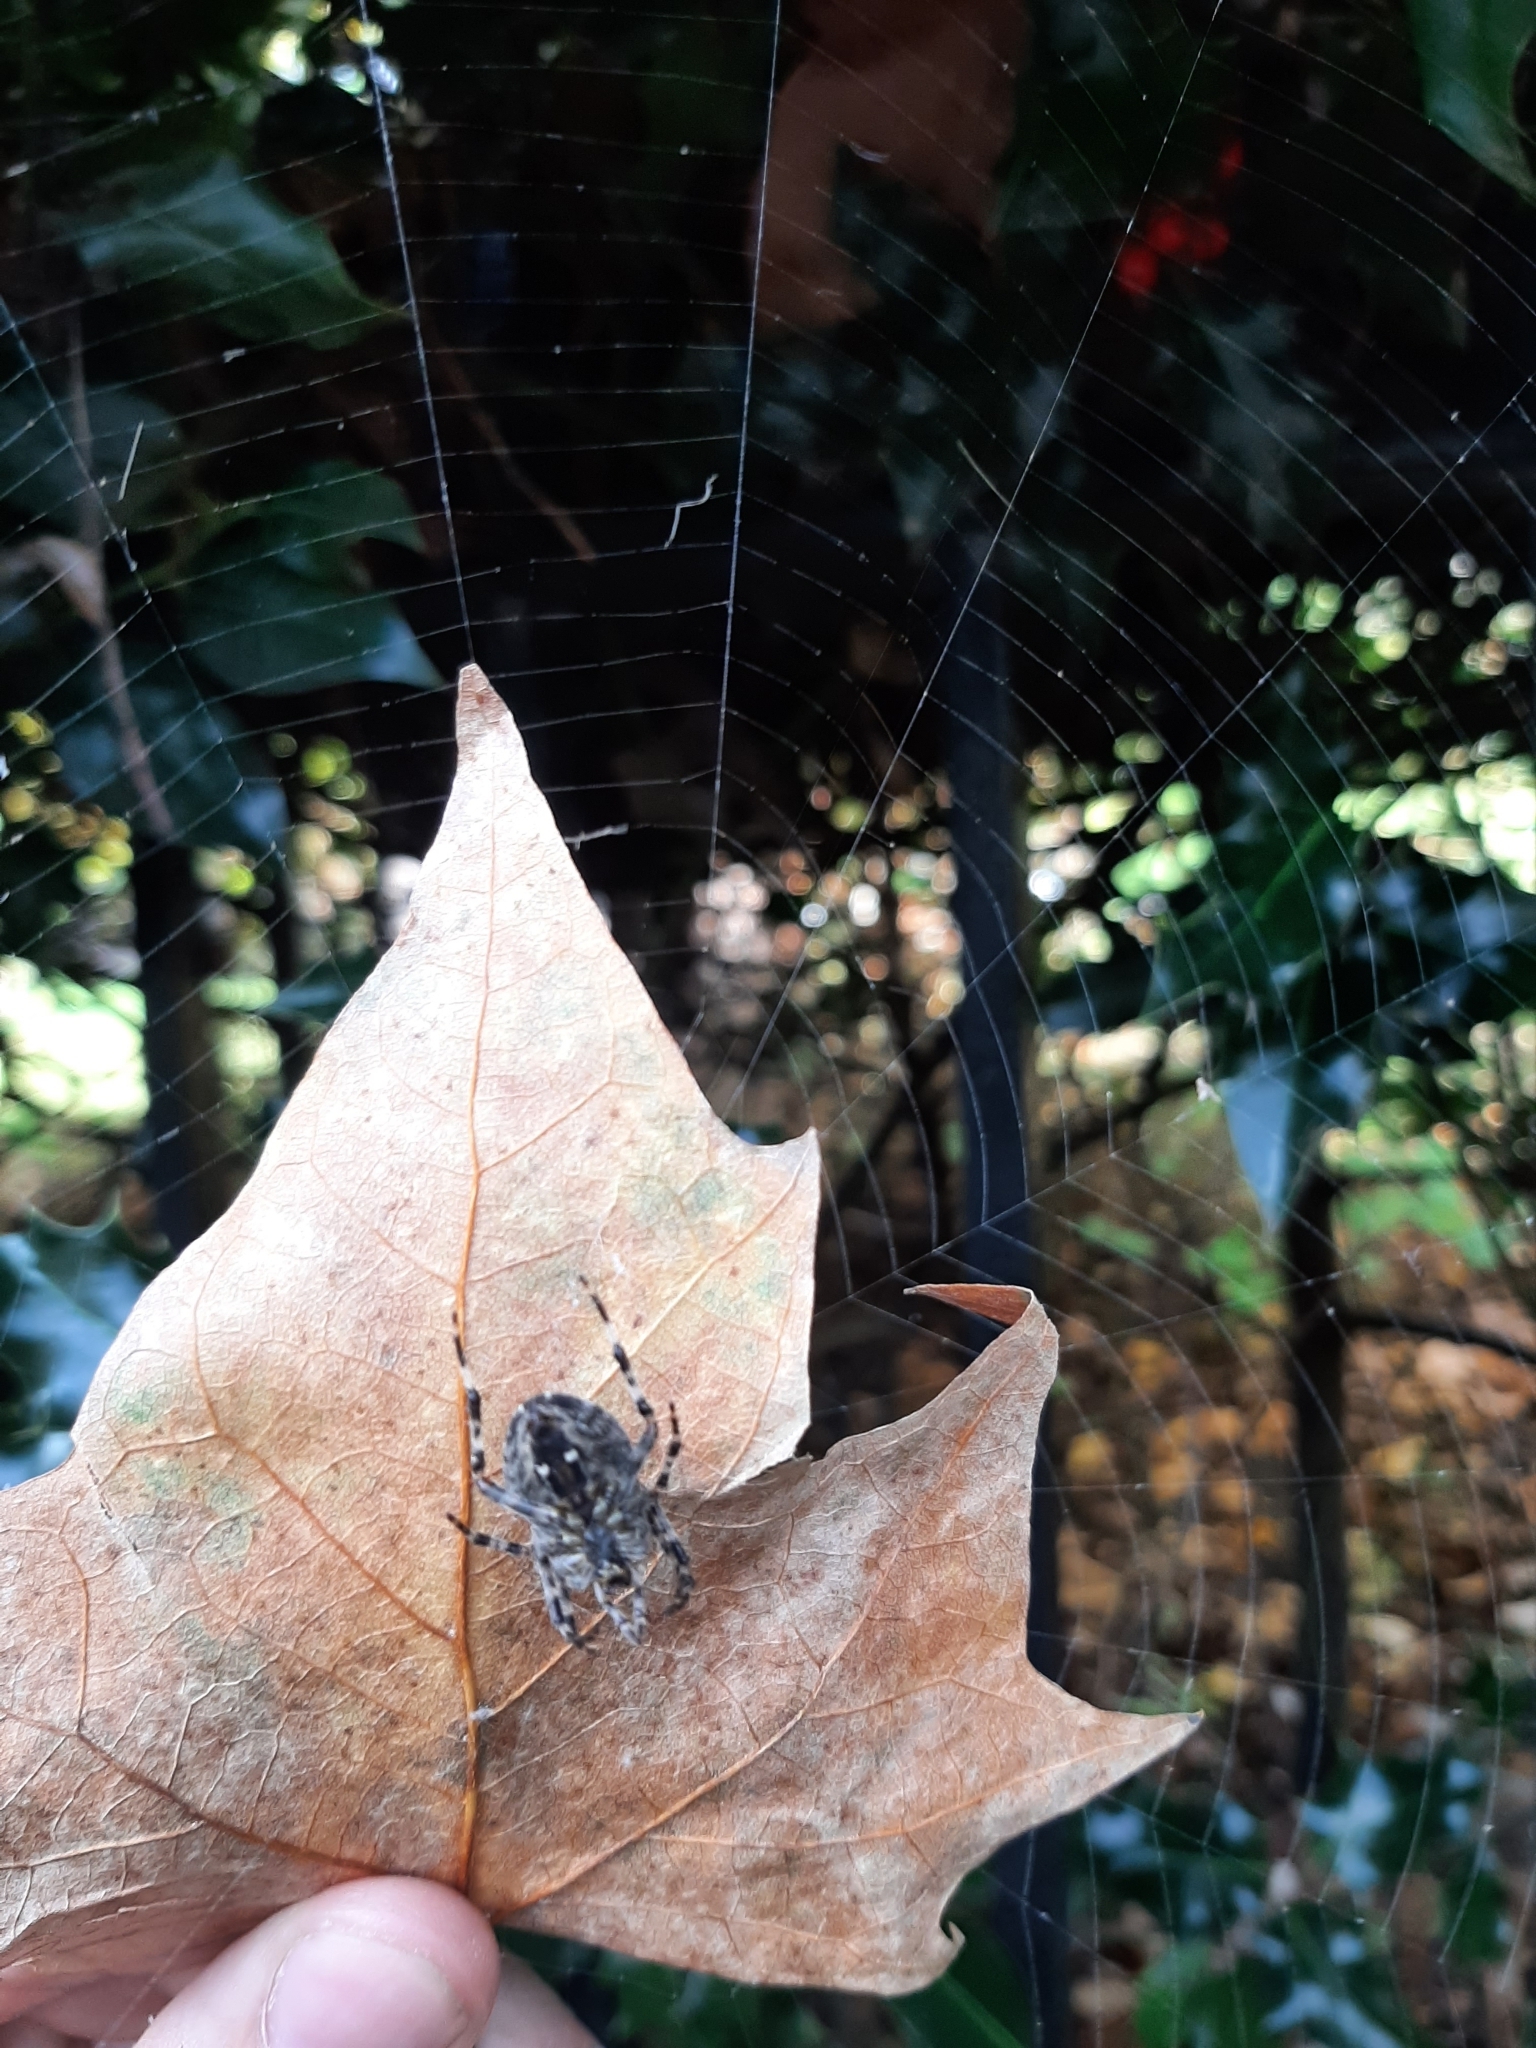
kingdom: Animalia
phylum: Arthropoda
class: Arachnida
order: Araneae
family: Araneidae
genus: Araneus
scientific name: Araneus diadematus
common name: Cross orbweaver
